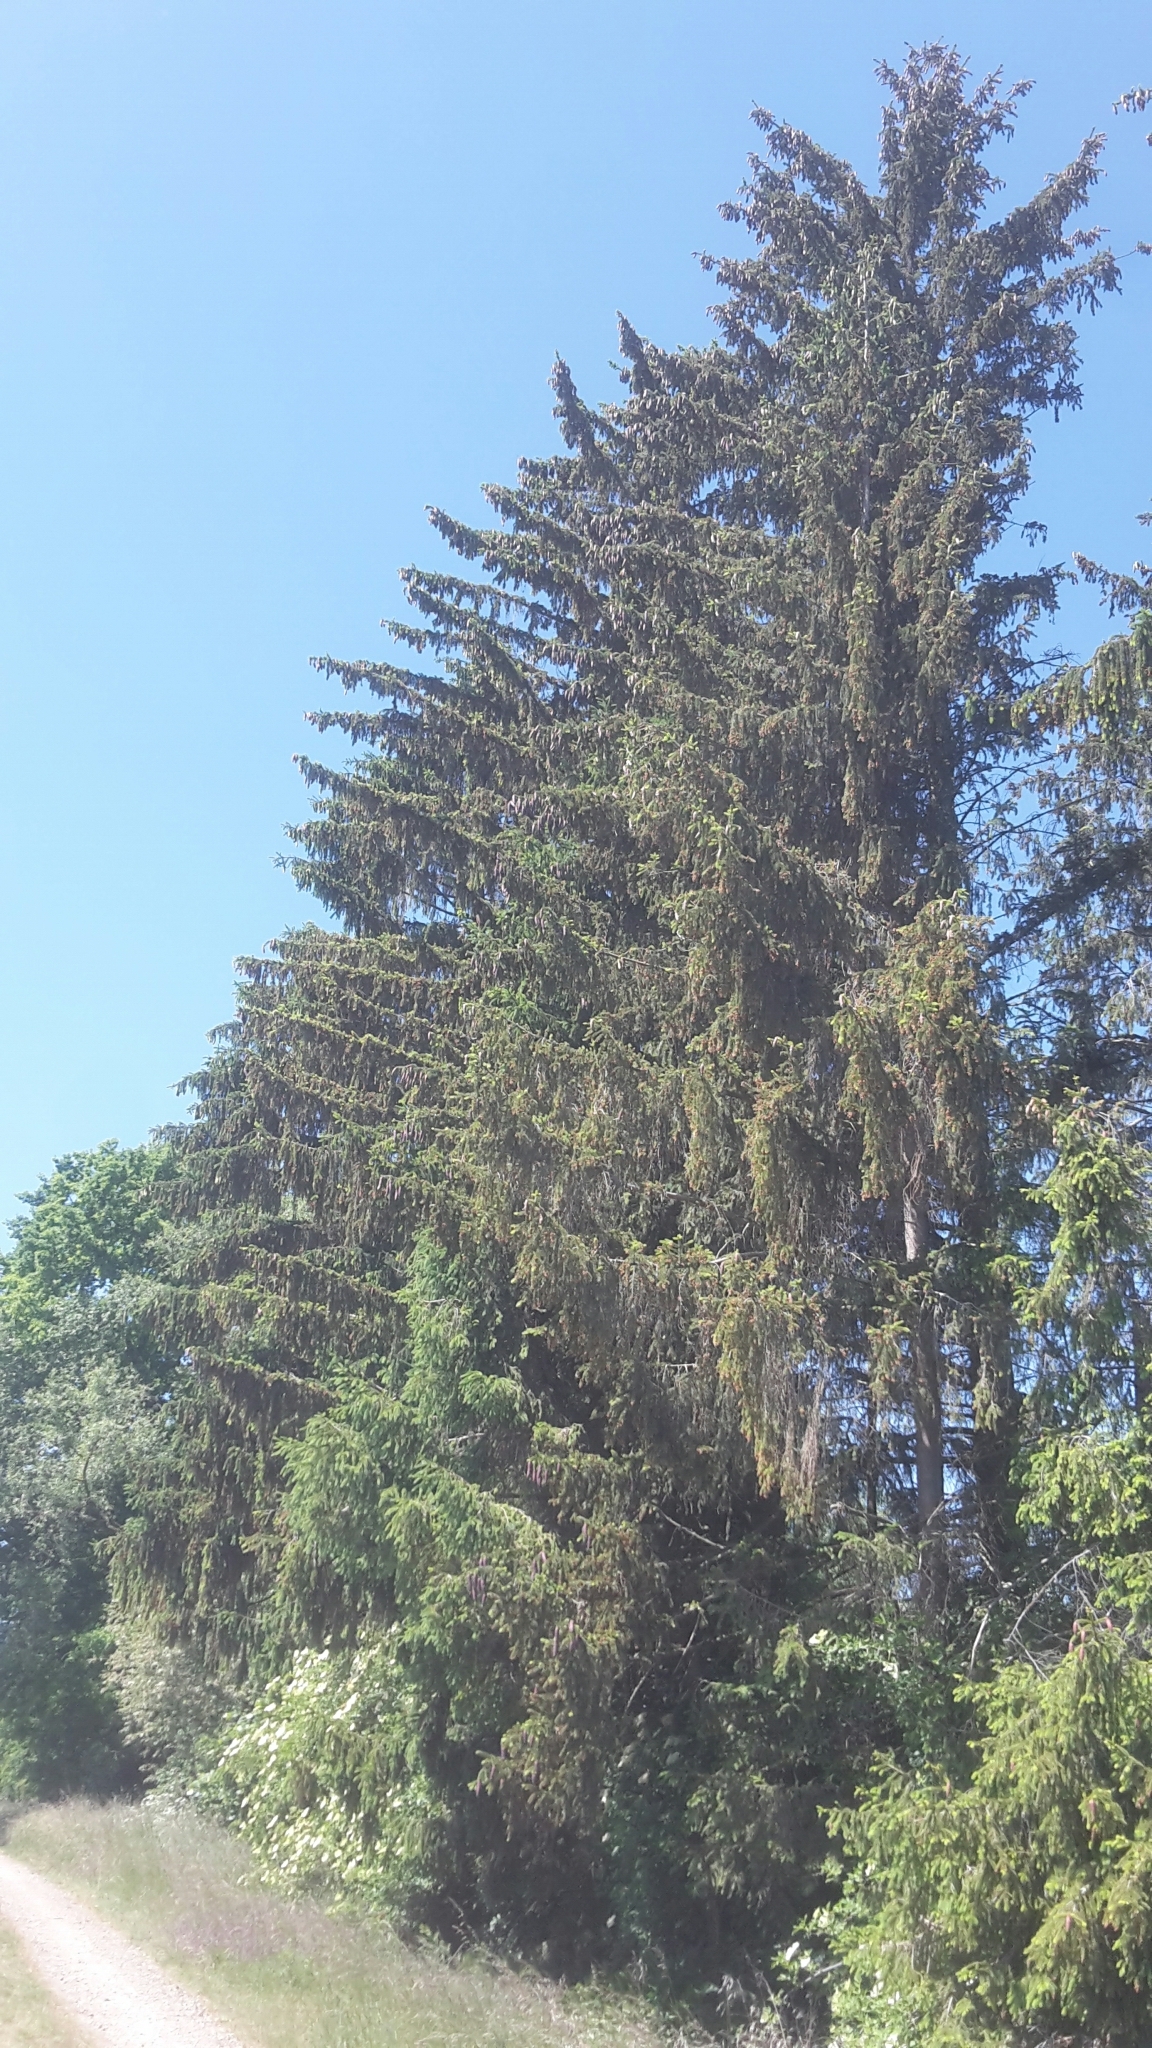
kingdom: Plantae
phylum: Tracheophyta
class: Pinopsida
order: Pinales
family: Pinaceae
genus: Picea
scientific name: Picea abies
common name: Norway spruce
